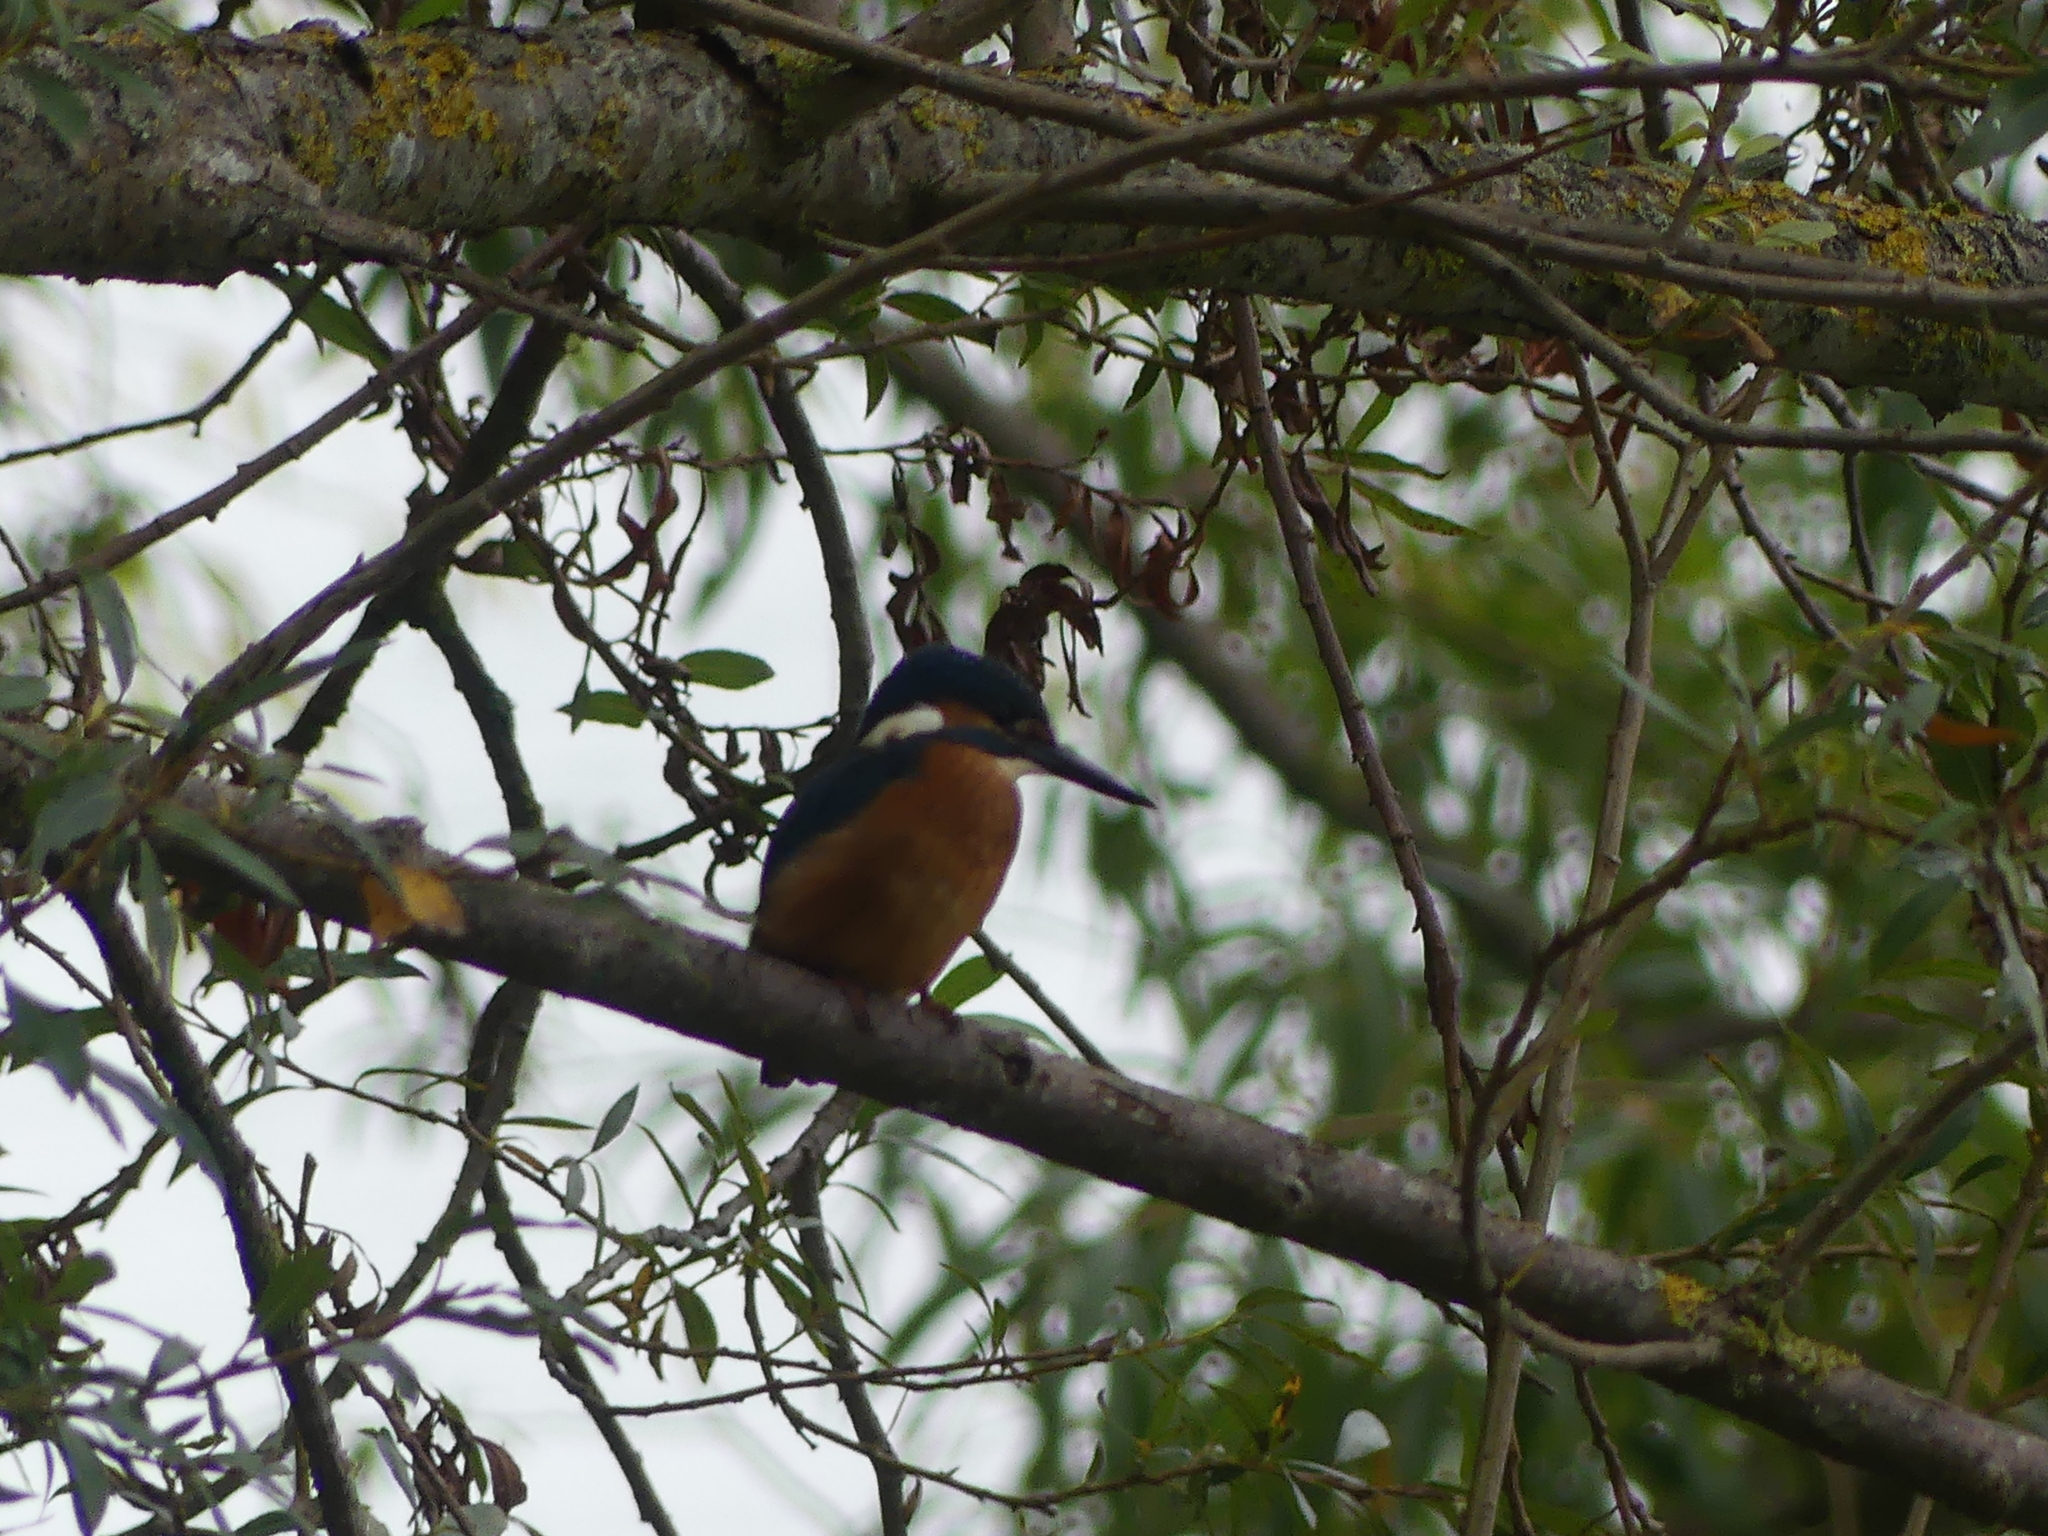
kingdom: Animalia
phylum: Chordata
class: Aves
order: Coraciiformes
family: Alcedinidae
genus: Alcedo
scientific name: Alcedo atthis
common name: Common kingfisher
